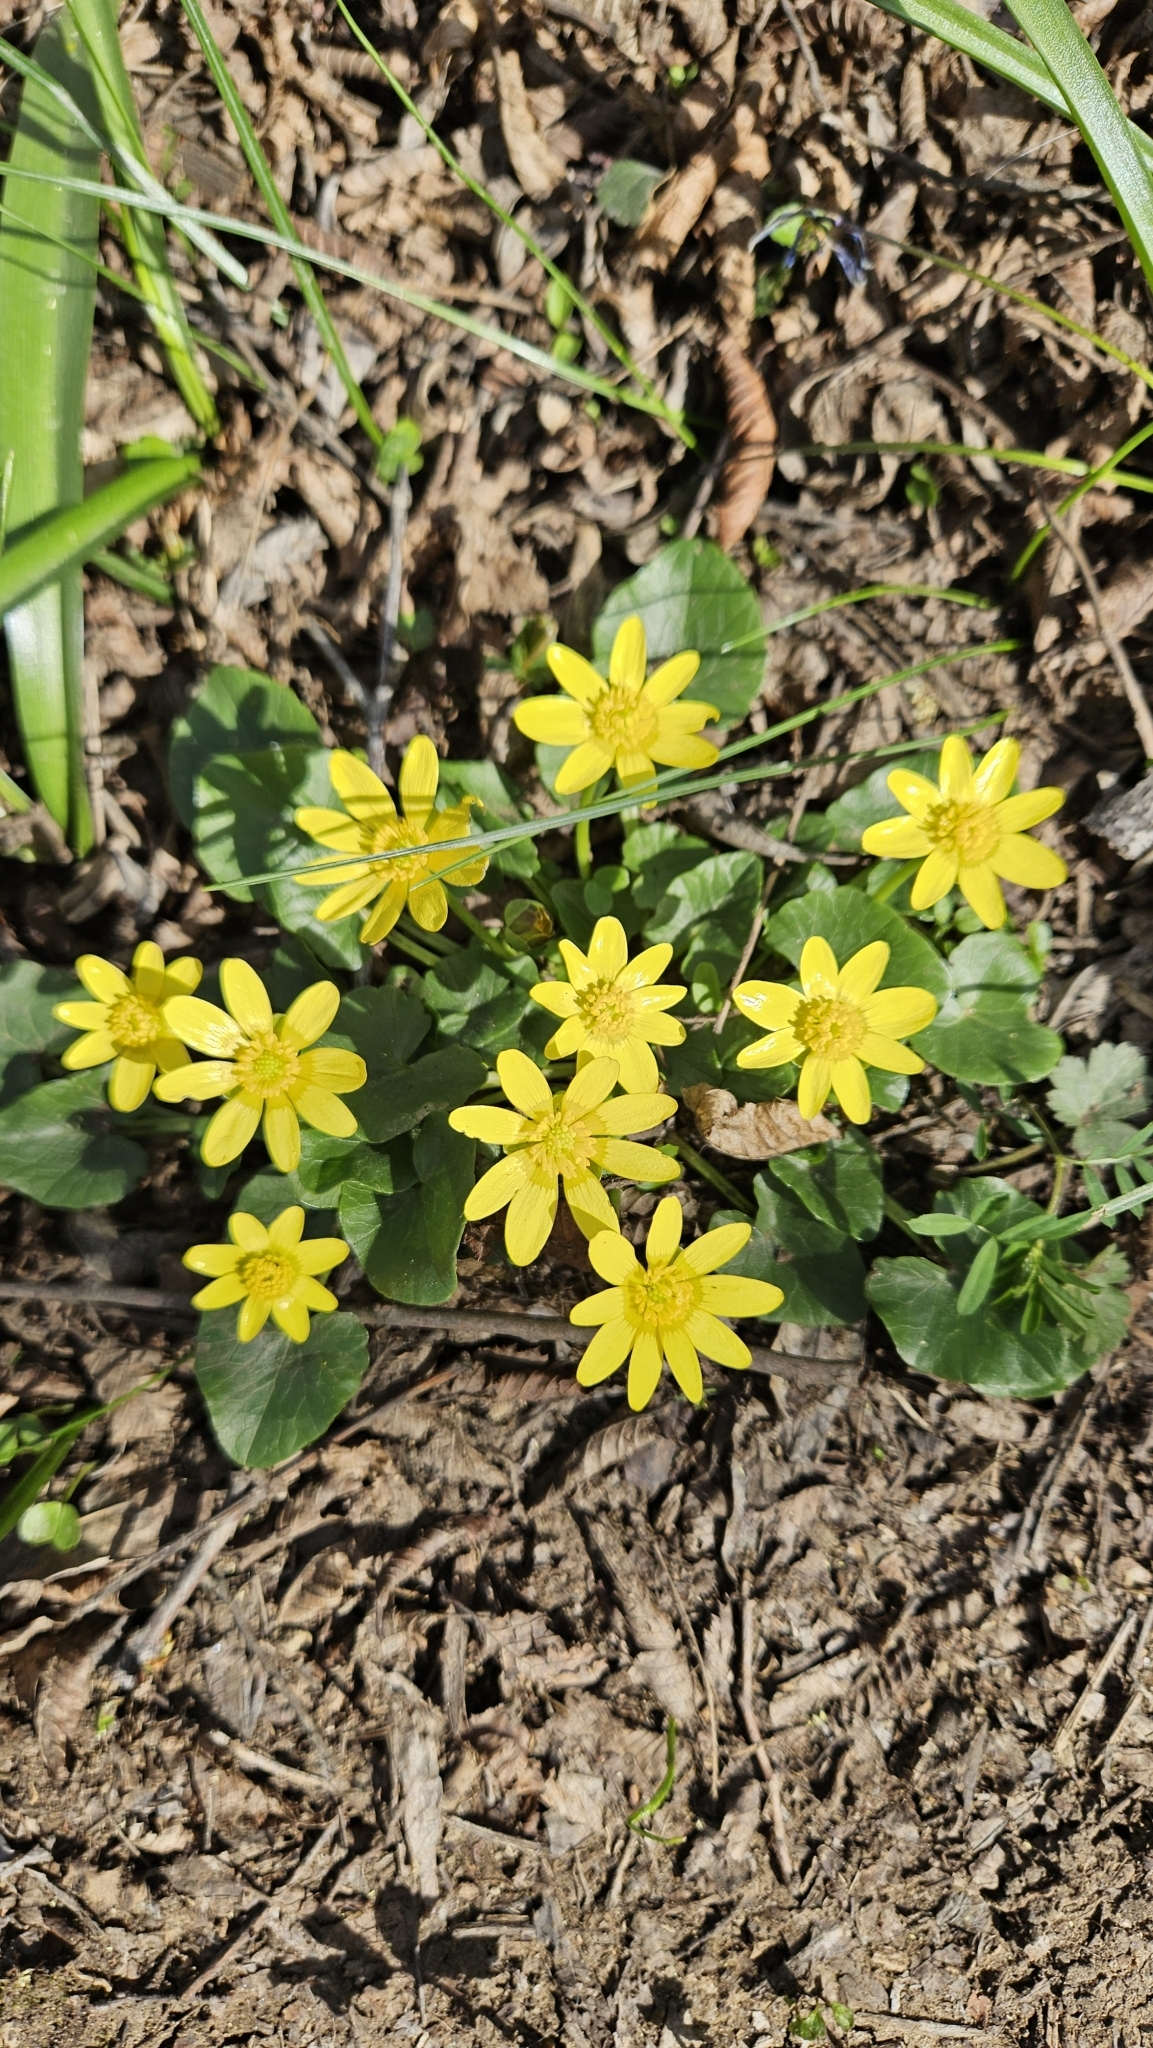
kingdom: Plantae
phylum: Tracheophyta
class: Magnoliopsida
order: Ranunculales
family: Ranunculaceae
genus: Ficaria
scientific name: Ficaria verna
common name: Lesser celandine
